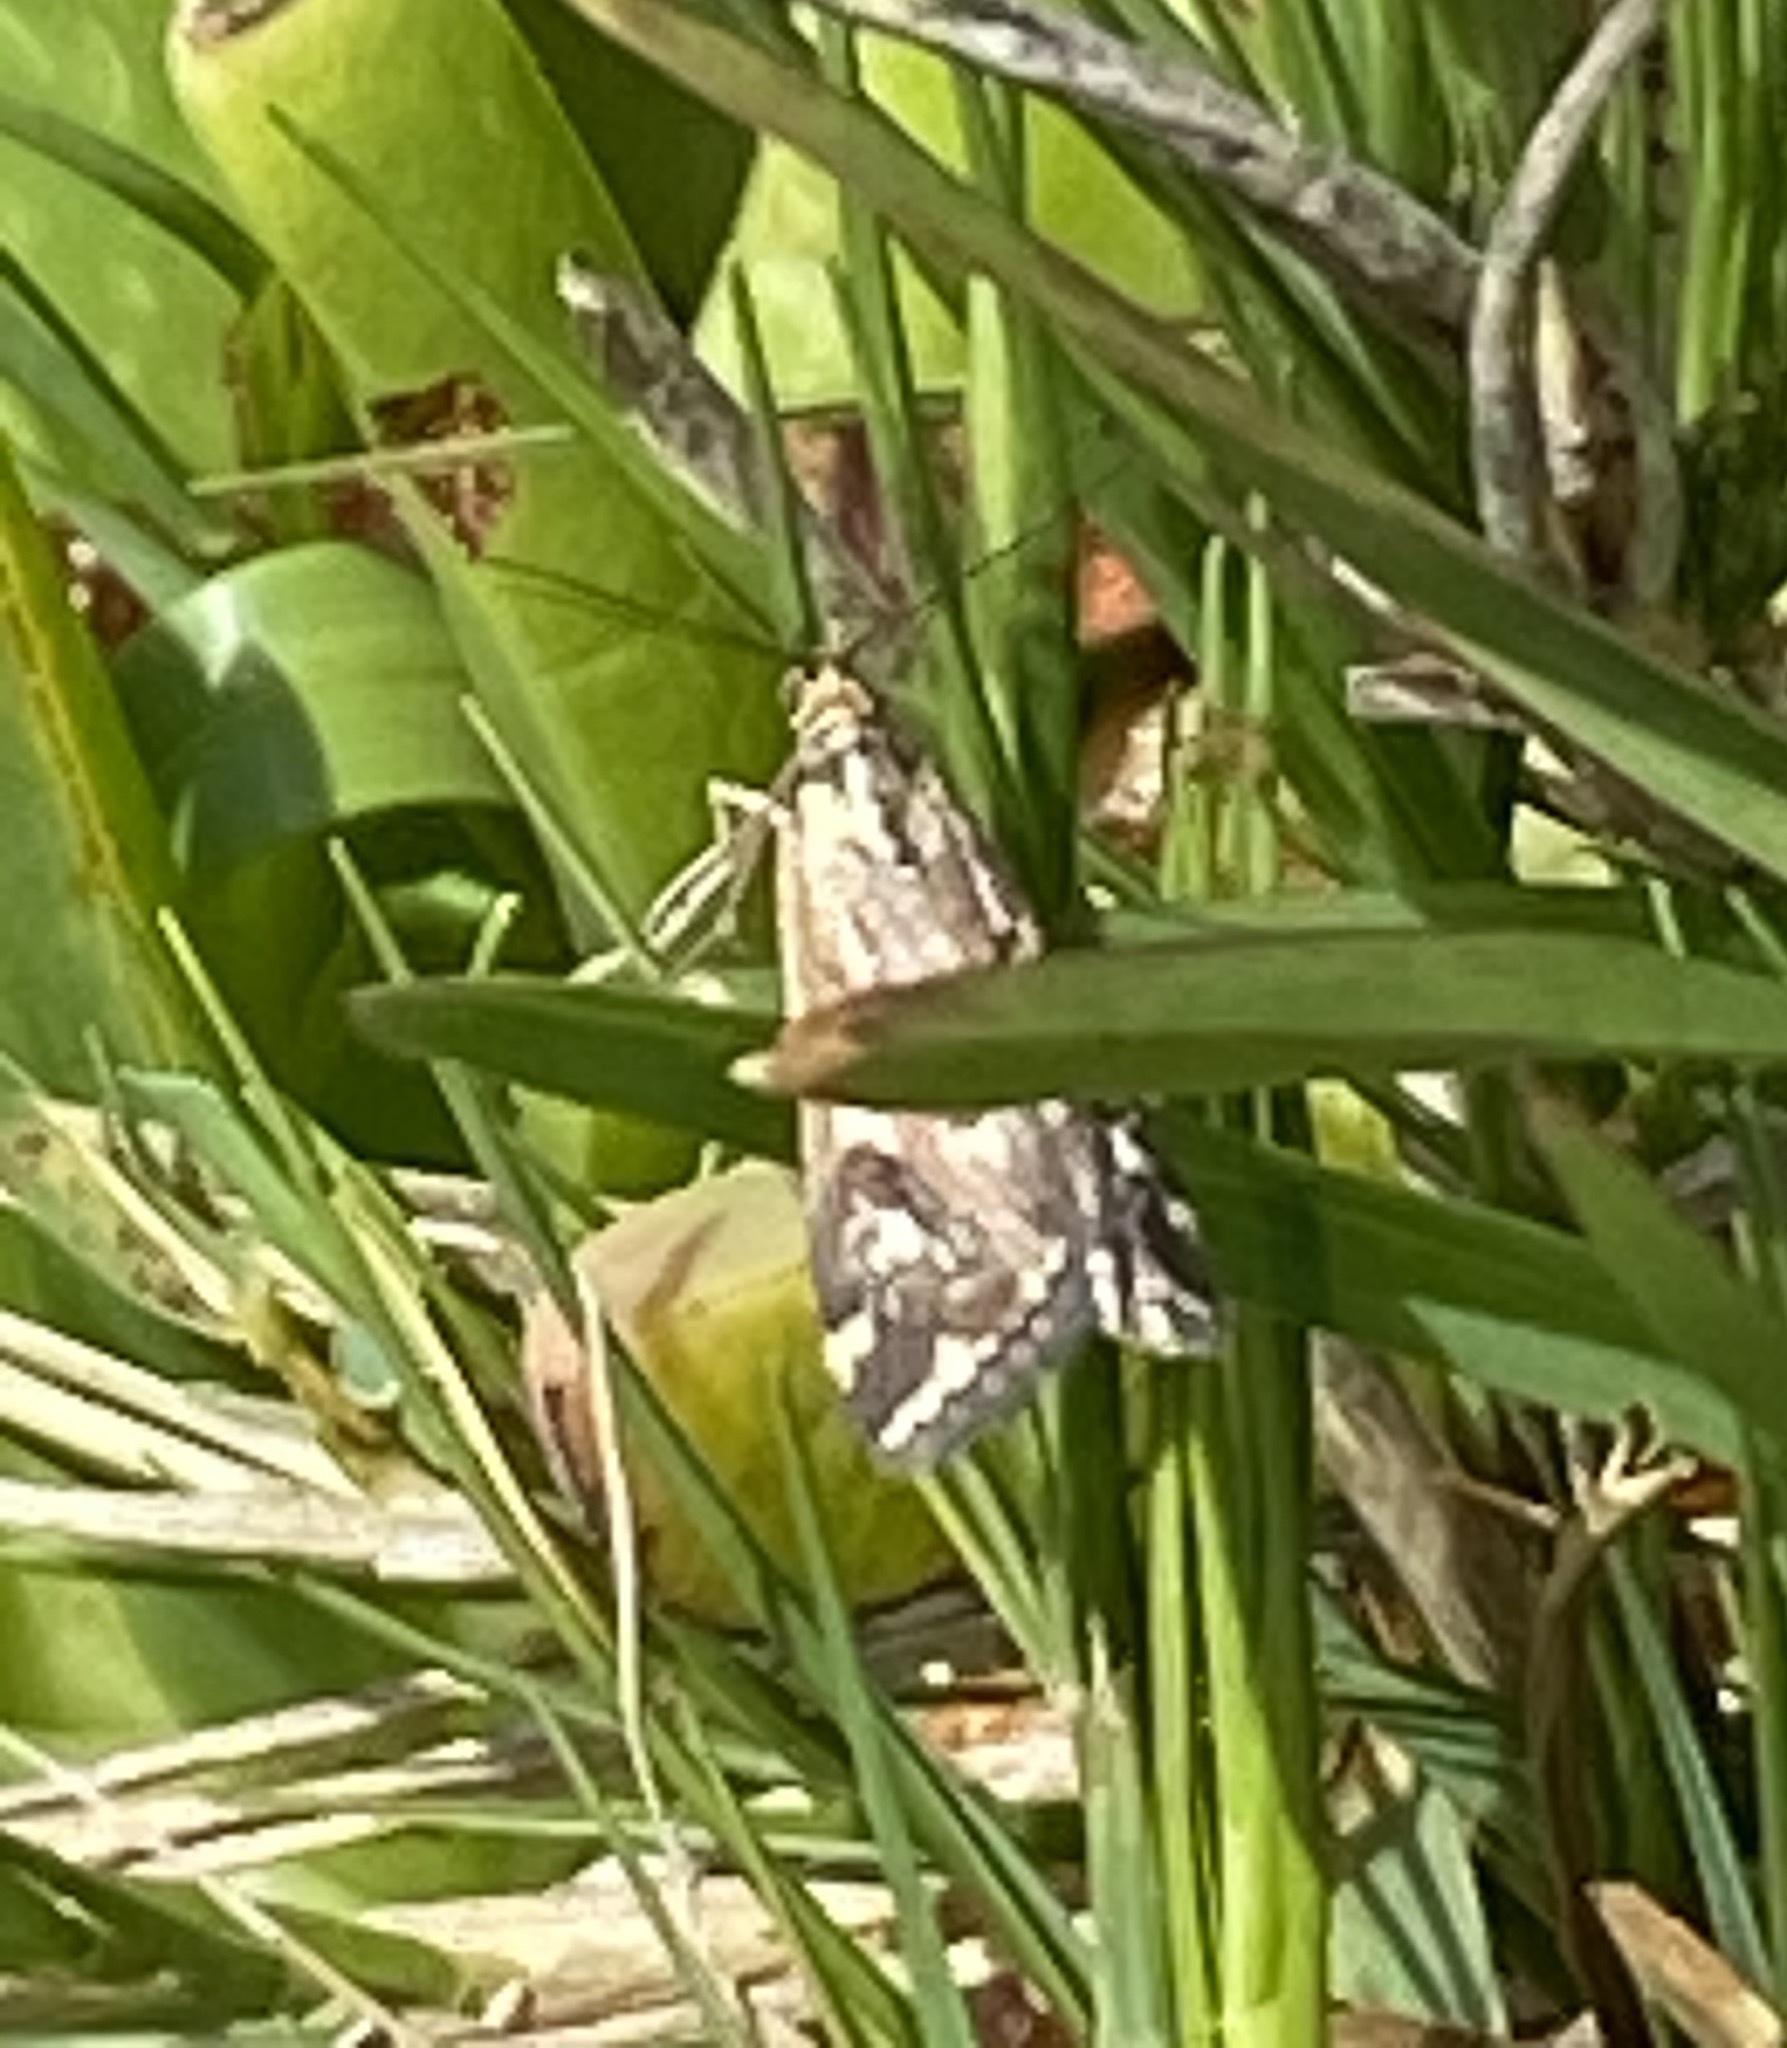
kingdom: Animalia
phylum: Arthropoda
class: Insecta
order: Lepidoptera
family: Crambidae
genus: Loxostege
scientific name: Loxostege frustalis
